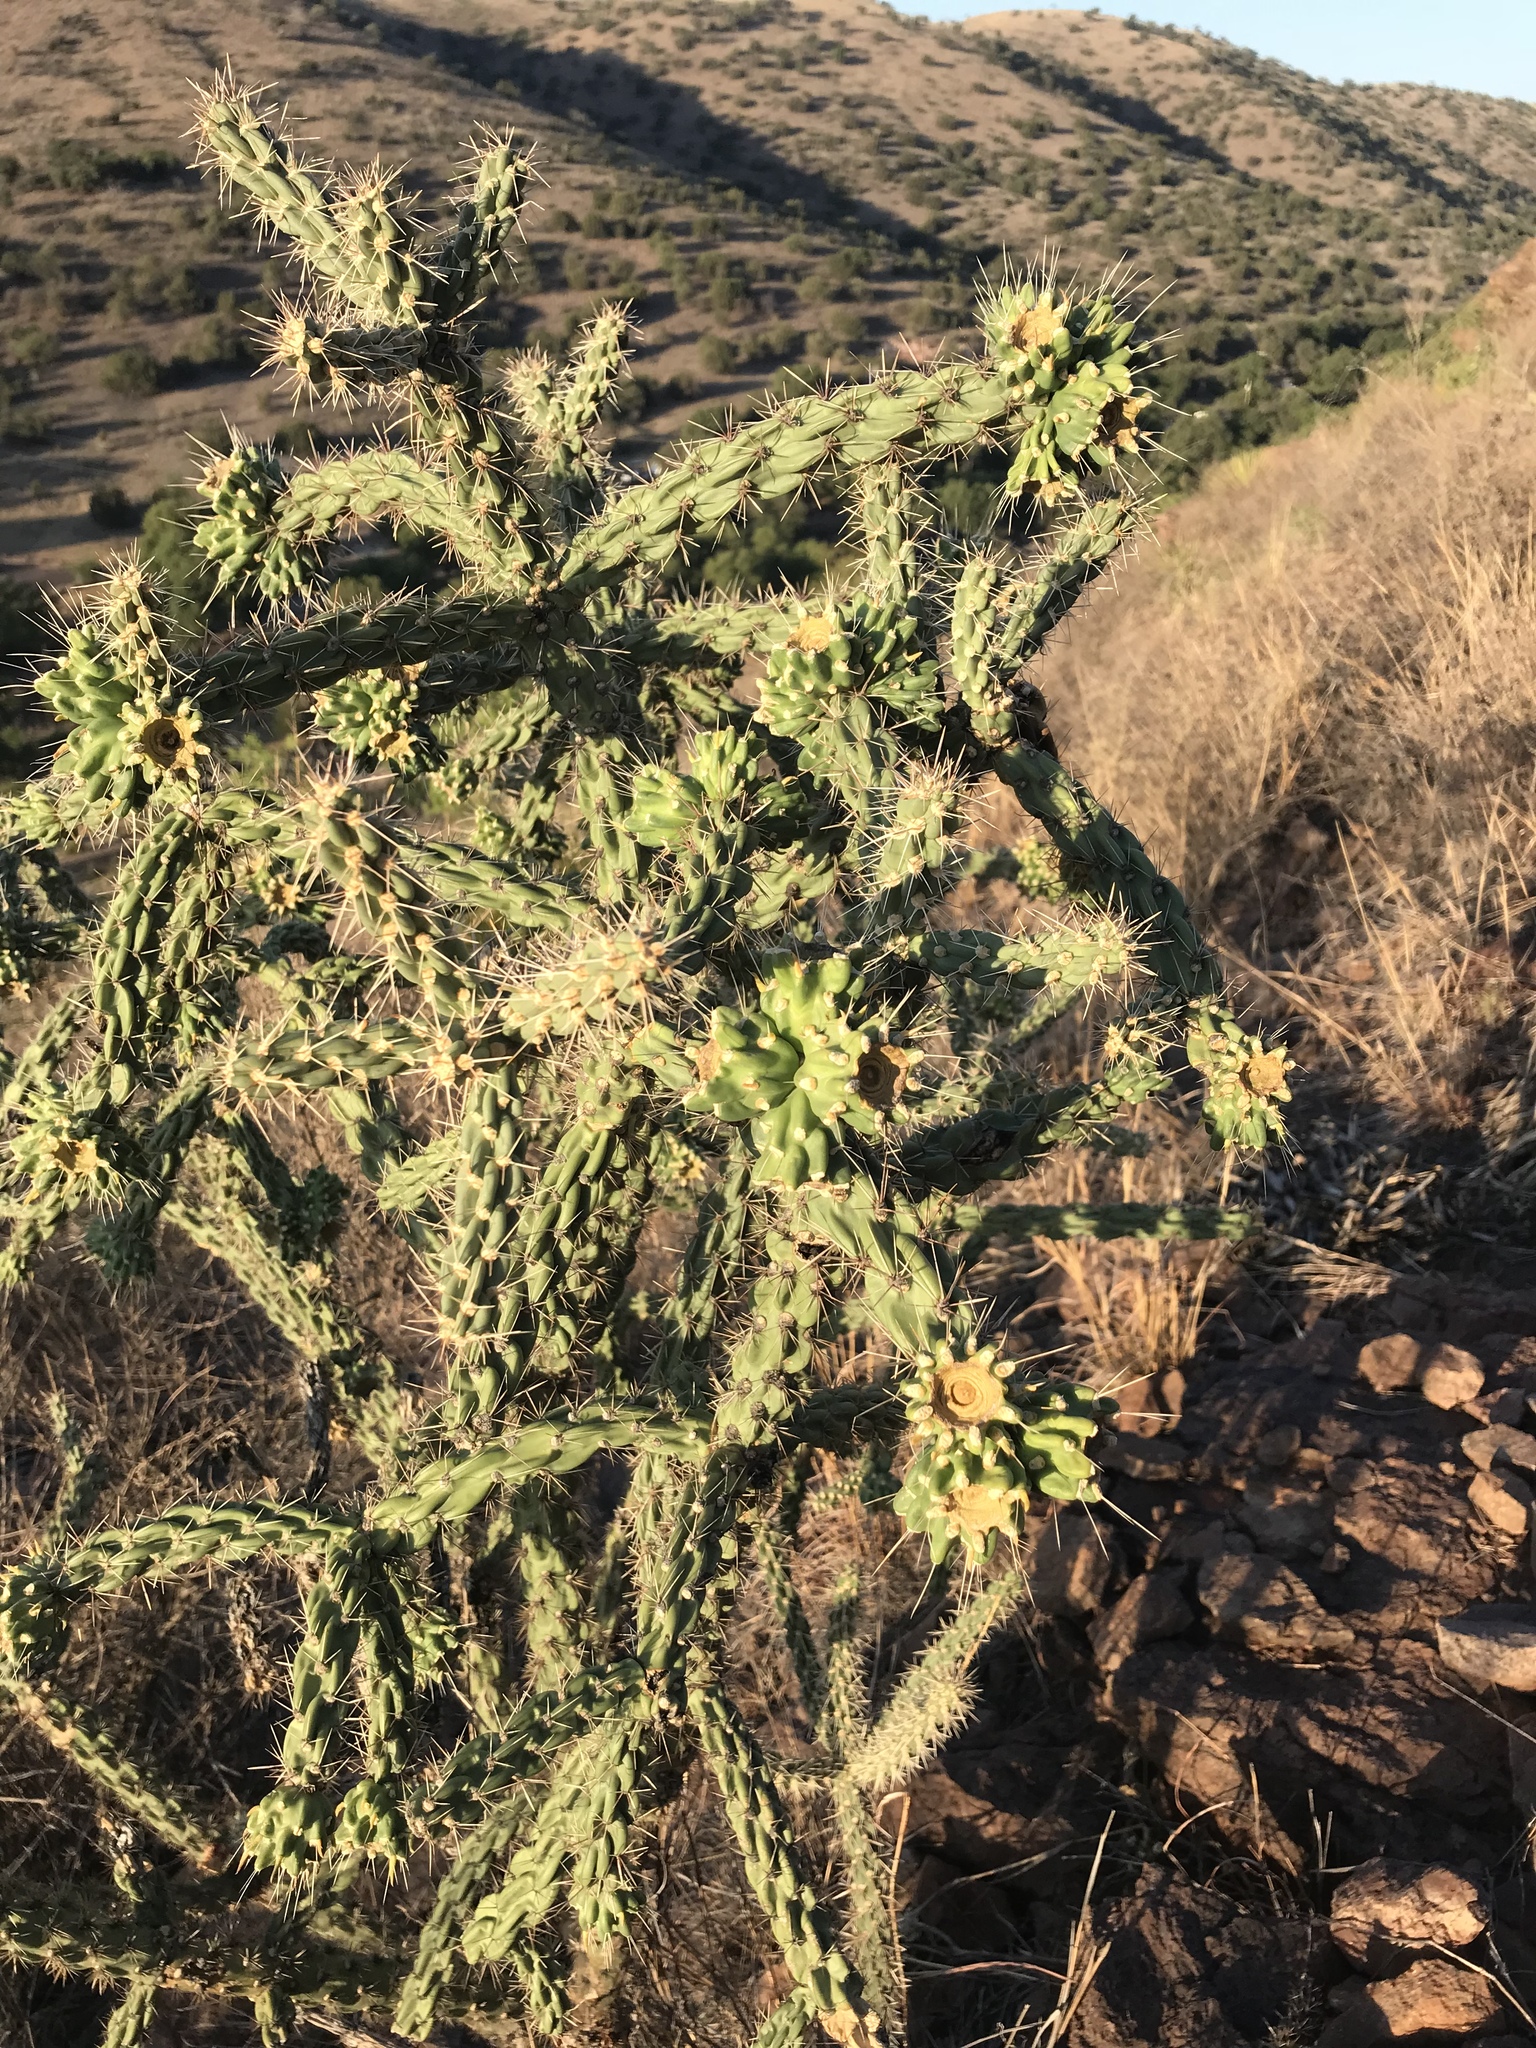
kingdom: Plantae
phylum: Tracheophyta
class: Magnoliopsida
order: Caryophyllales
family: Cactaceae
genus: Cylindropuntia
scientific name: Cylindropuntia imbricata
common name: Candelabrum cactus
